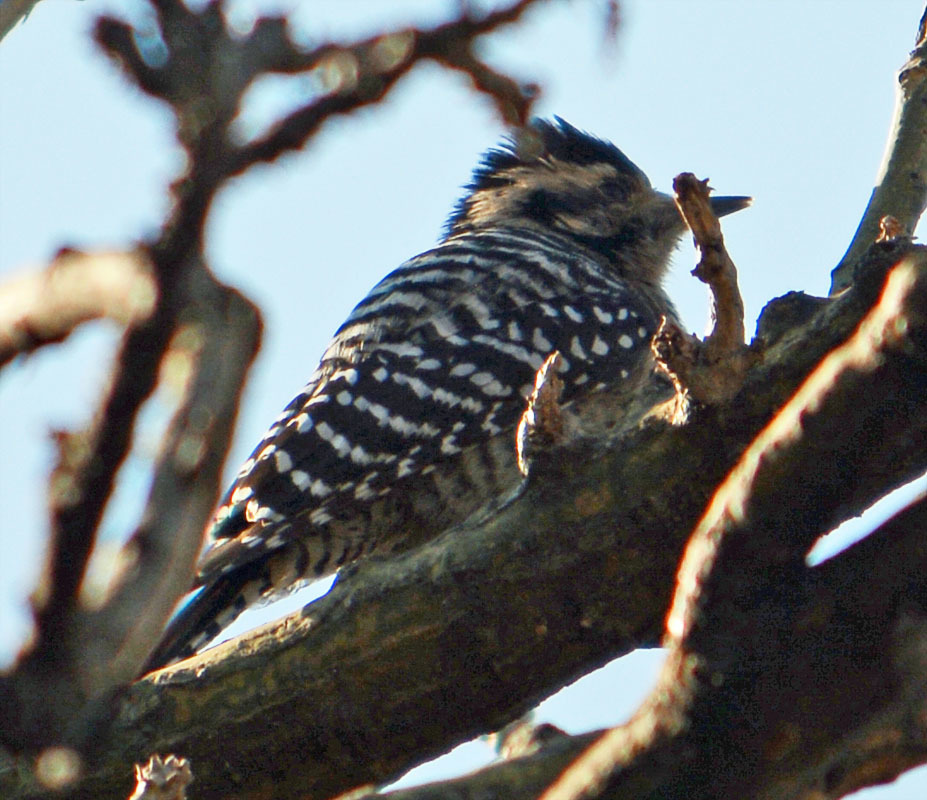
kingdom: Animalia
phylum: Chordata
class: Aves
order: Piciformes
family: Picidae
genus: Dryobates
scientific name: Dryobates scalaris
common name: Ladder-backed woodpecker
